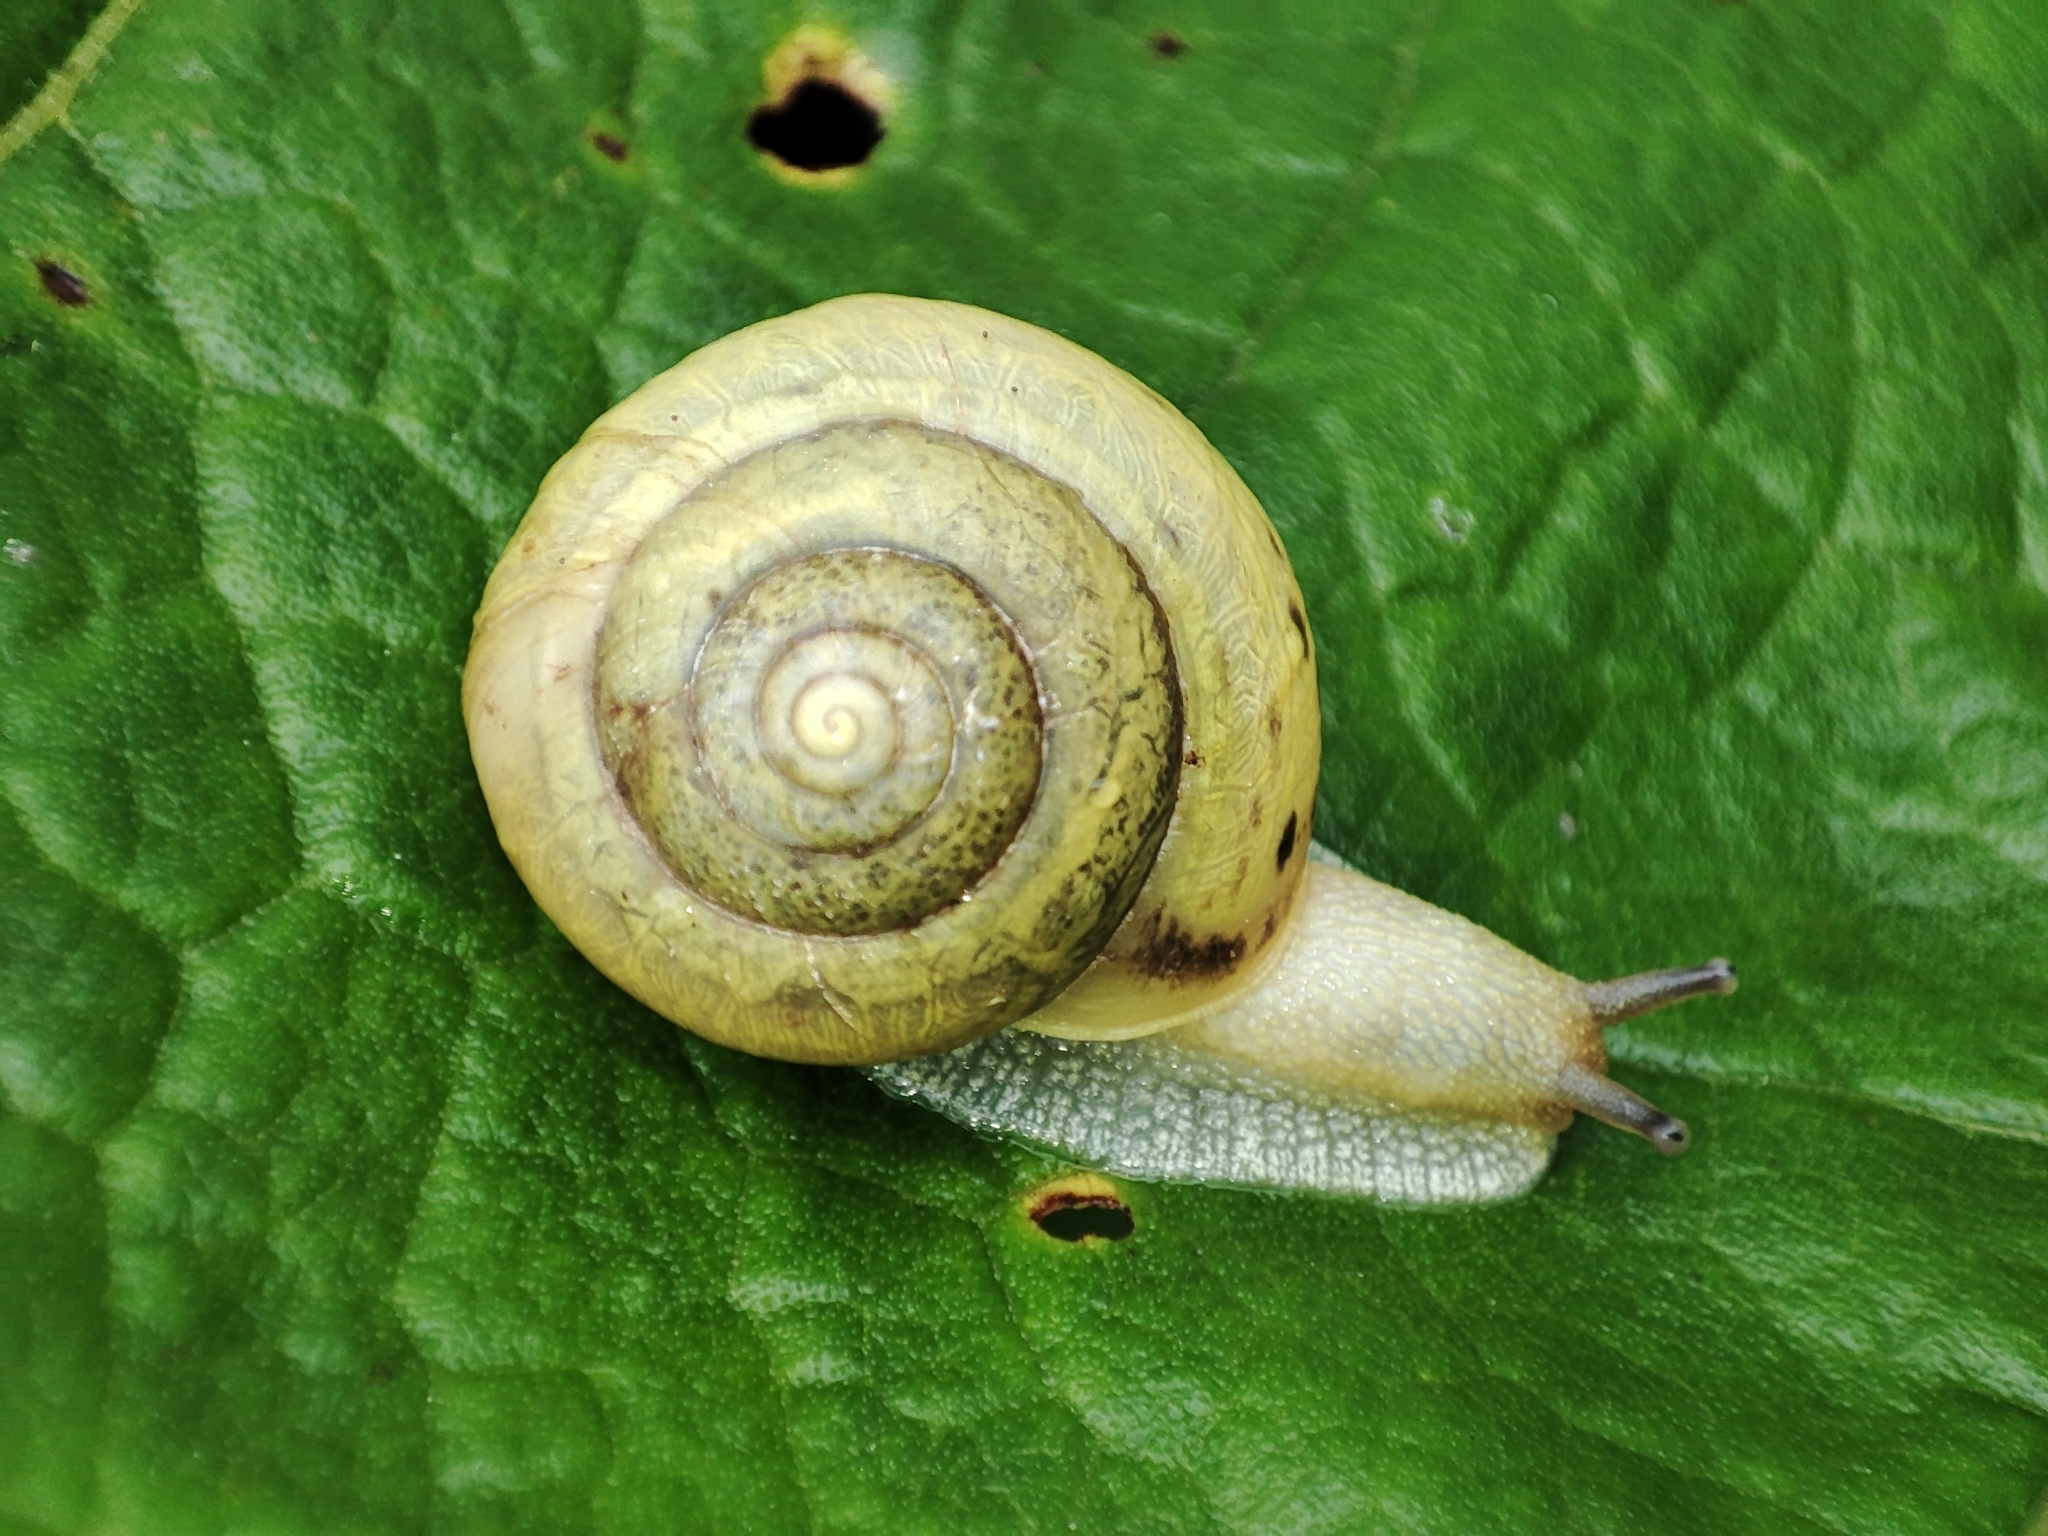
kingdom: Animalia
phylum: Mollusca
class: Gastropoda
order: Stylommatophora
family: Camaenidae
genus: Fruticicola
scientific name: Fruticicola fruticum
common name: Bush snail
